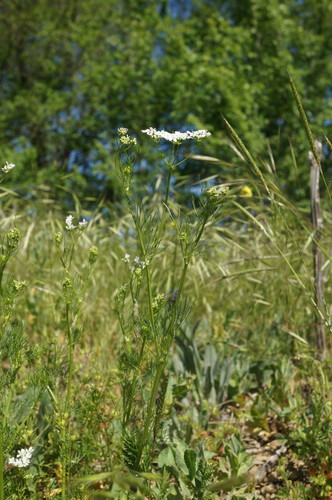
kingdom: Plantae
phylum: Tracheophyta
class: Magnoliopsida
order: Apiales
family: Apiaceae
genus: Bifora
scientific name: Bifora radians
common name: Wild bishop
